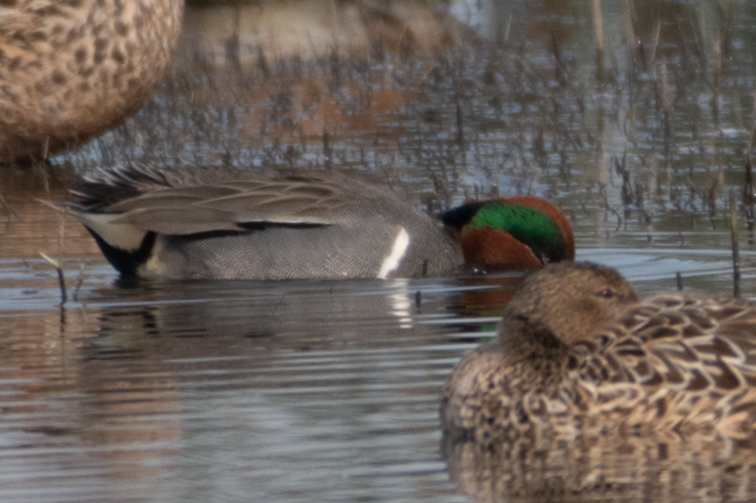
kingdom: Animalia
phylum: Chordata
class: Aves
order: Anseriformes
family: Anatidae
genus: Anas
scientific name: Anas crecca
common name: Eurasian teal
